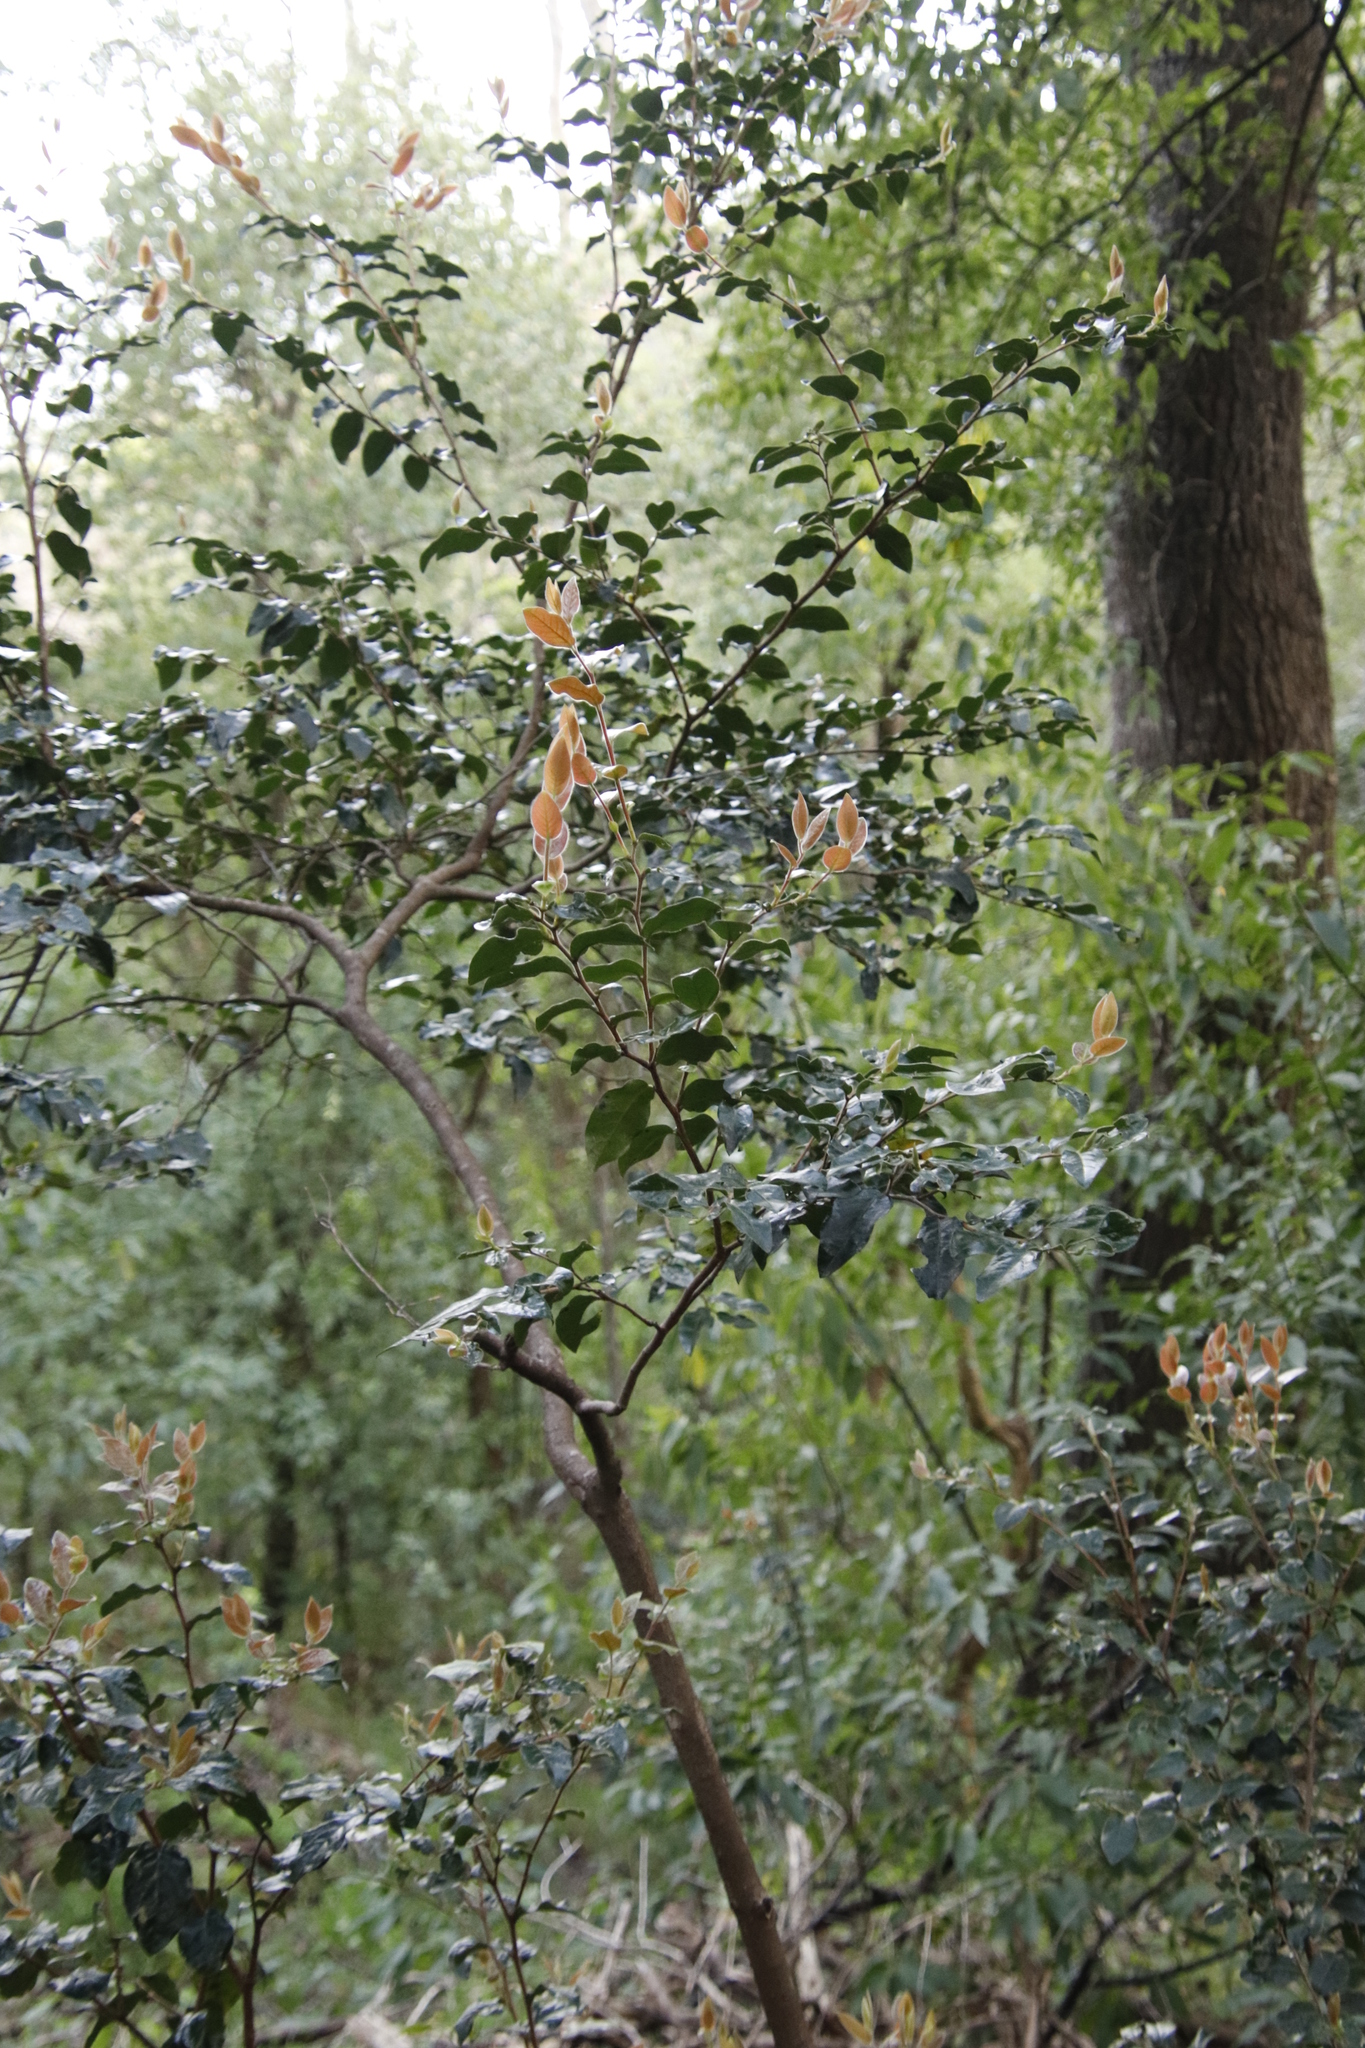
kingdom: Plantae
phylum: Tracheophyta
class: Magnoliopsida
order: Ericales
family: Ebenaceae
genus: Diospyros
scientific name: Diospyros whyteana
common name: Bladder-nut
